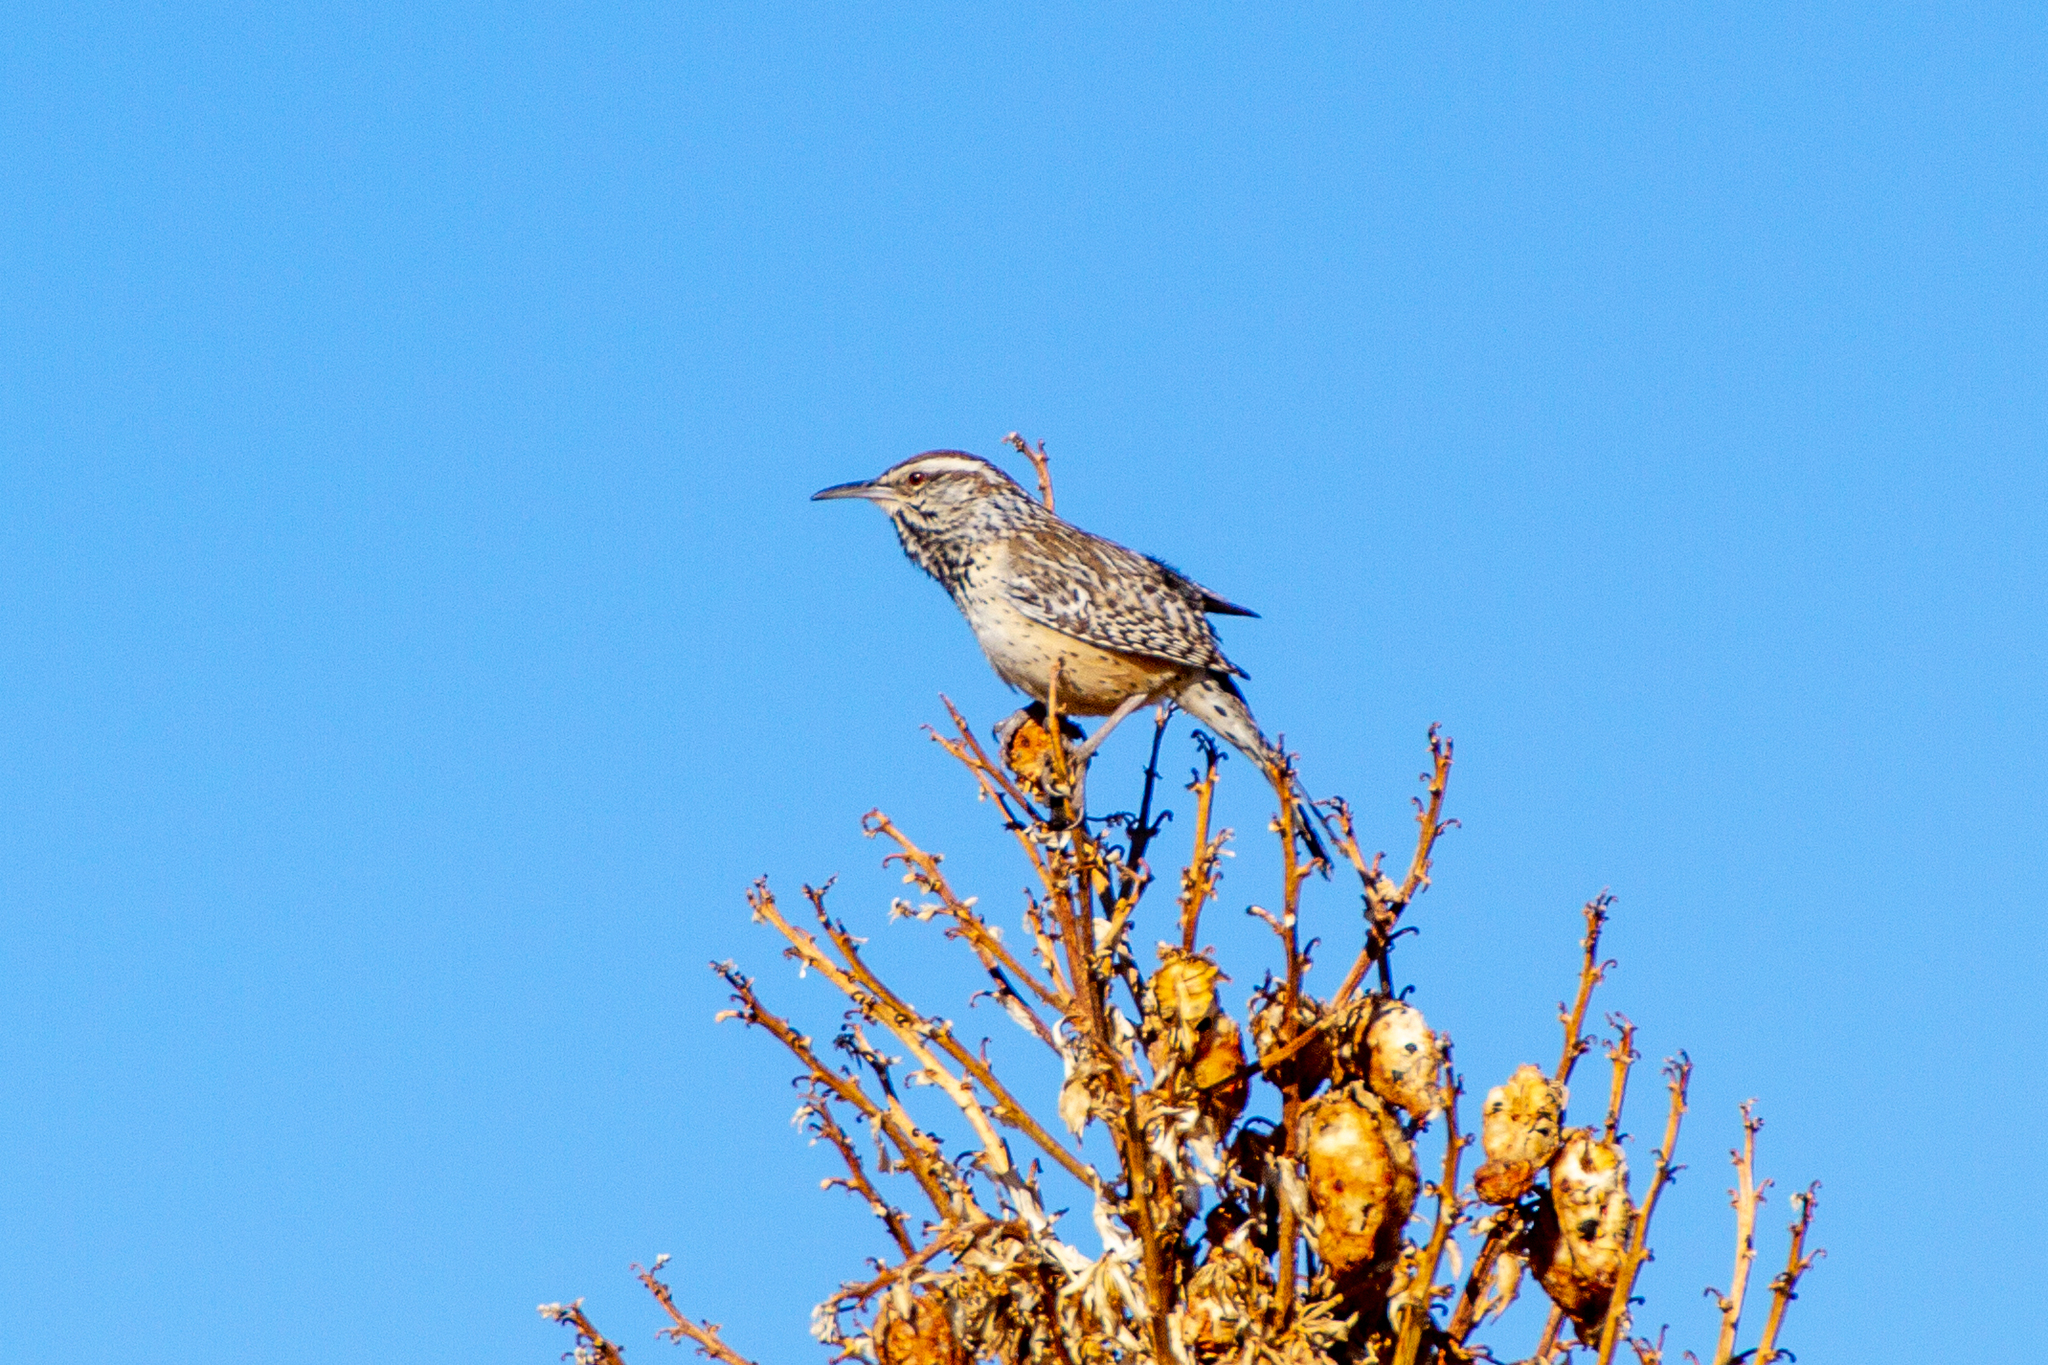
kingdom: Animalia
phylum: Chordata
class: Aves
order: Passeriformes
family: Troglodytidae
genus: Campylorhynchus
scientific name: Campylorhynchus brunneicapillus
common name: Cactus wren
